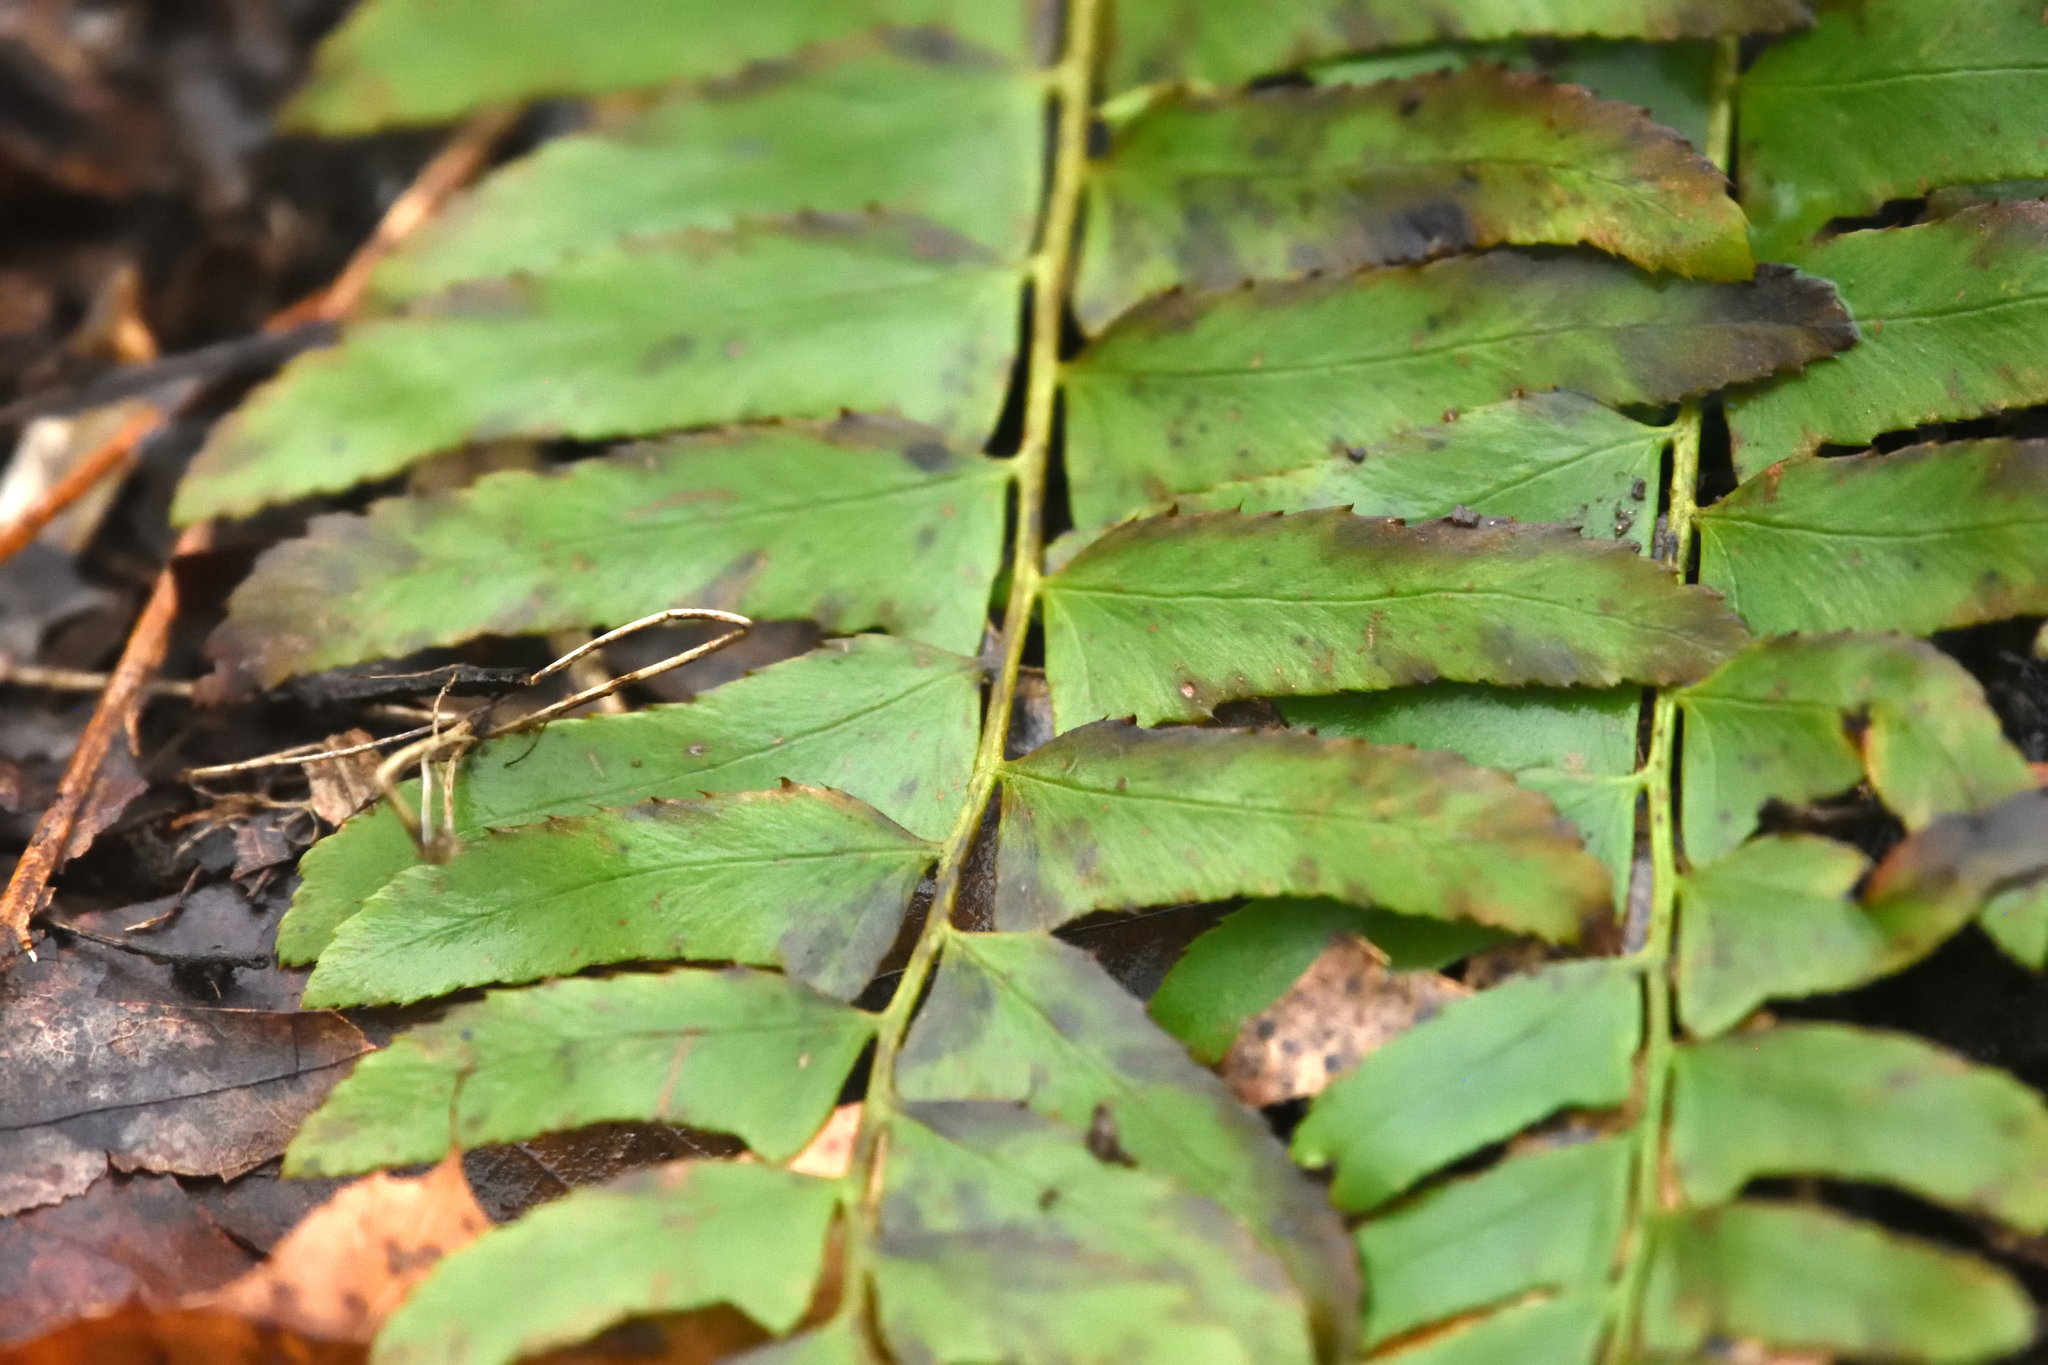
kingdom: Plantae
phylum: Tracheophyta
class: Polypodiopsida
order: Polypodiales
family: Dryopteridaceae
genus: Polystichum
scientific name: Polystichum acrostichoides
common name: Christmas fern
